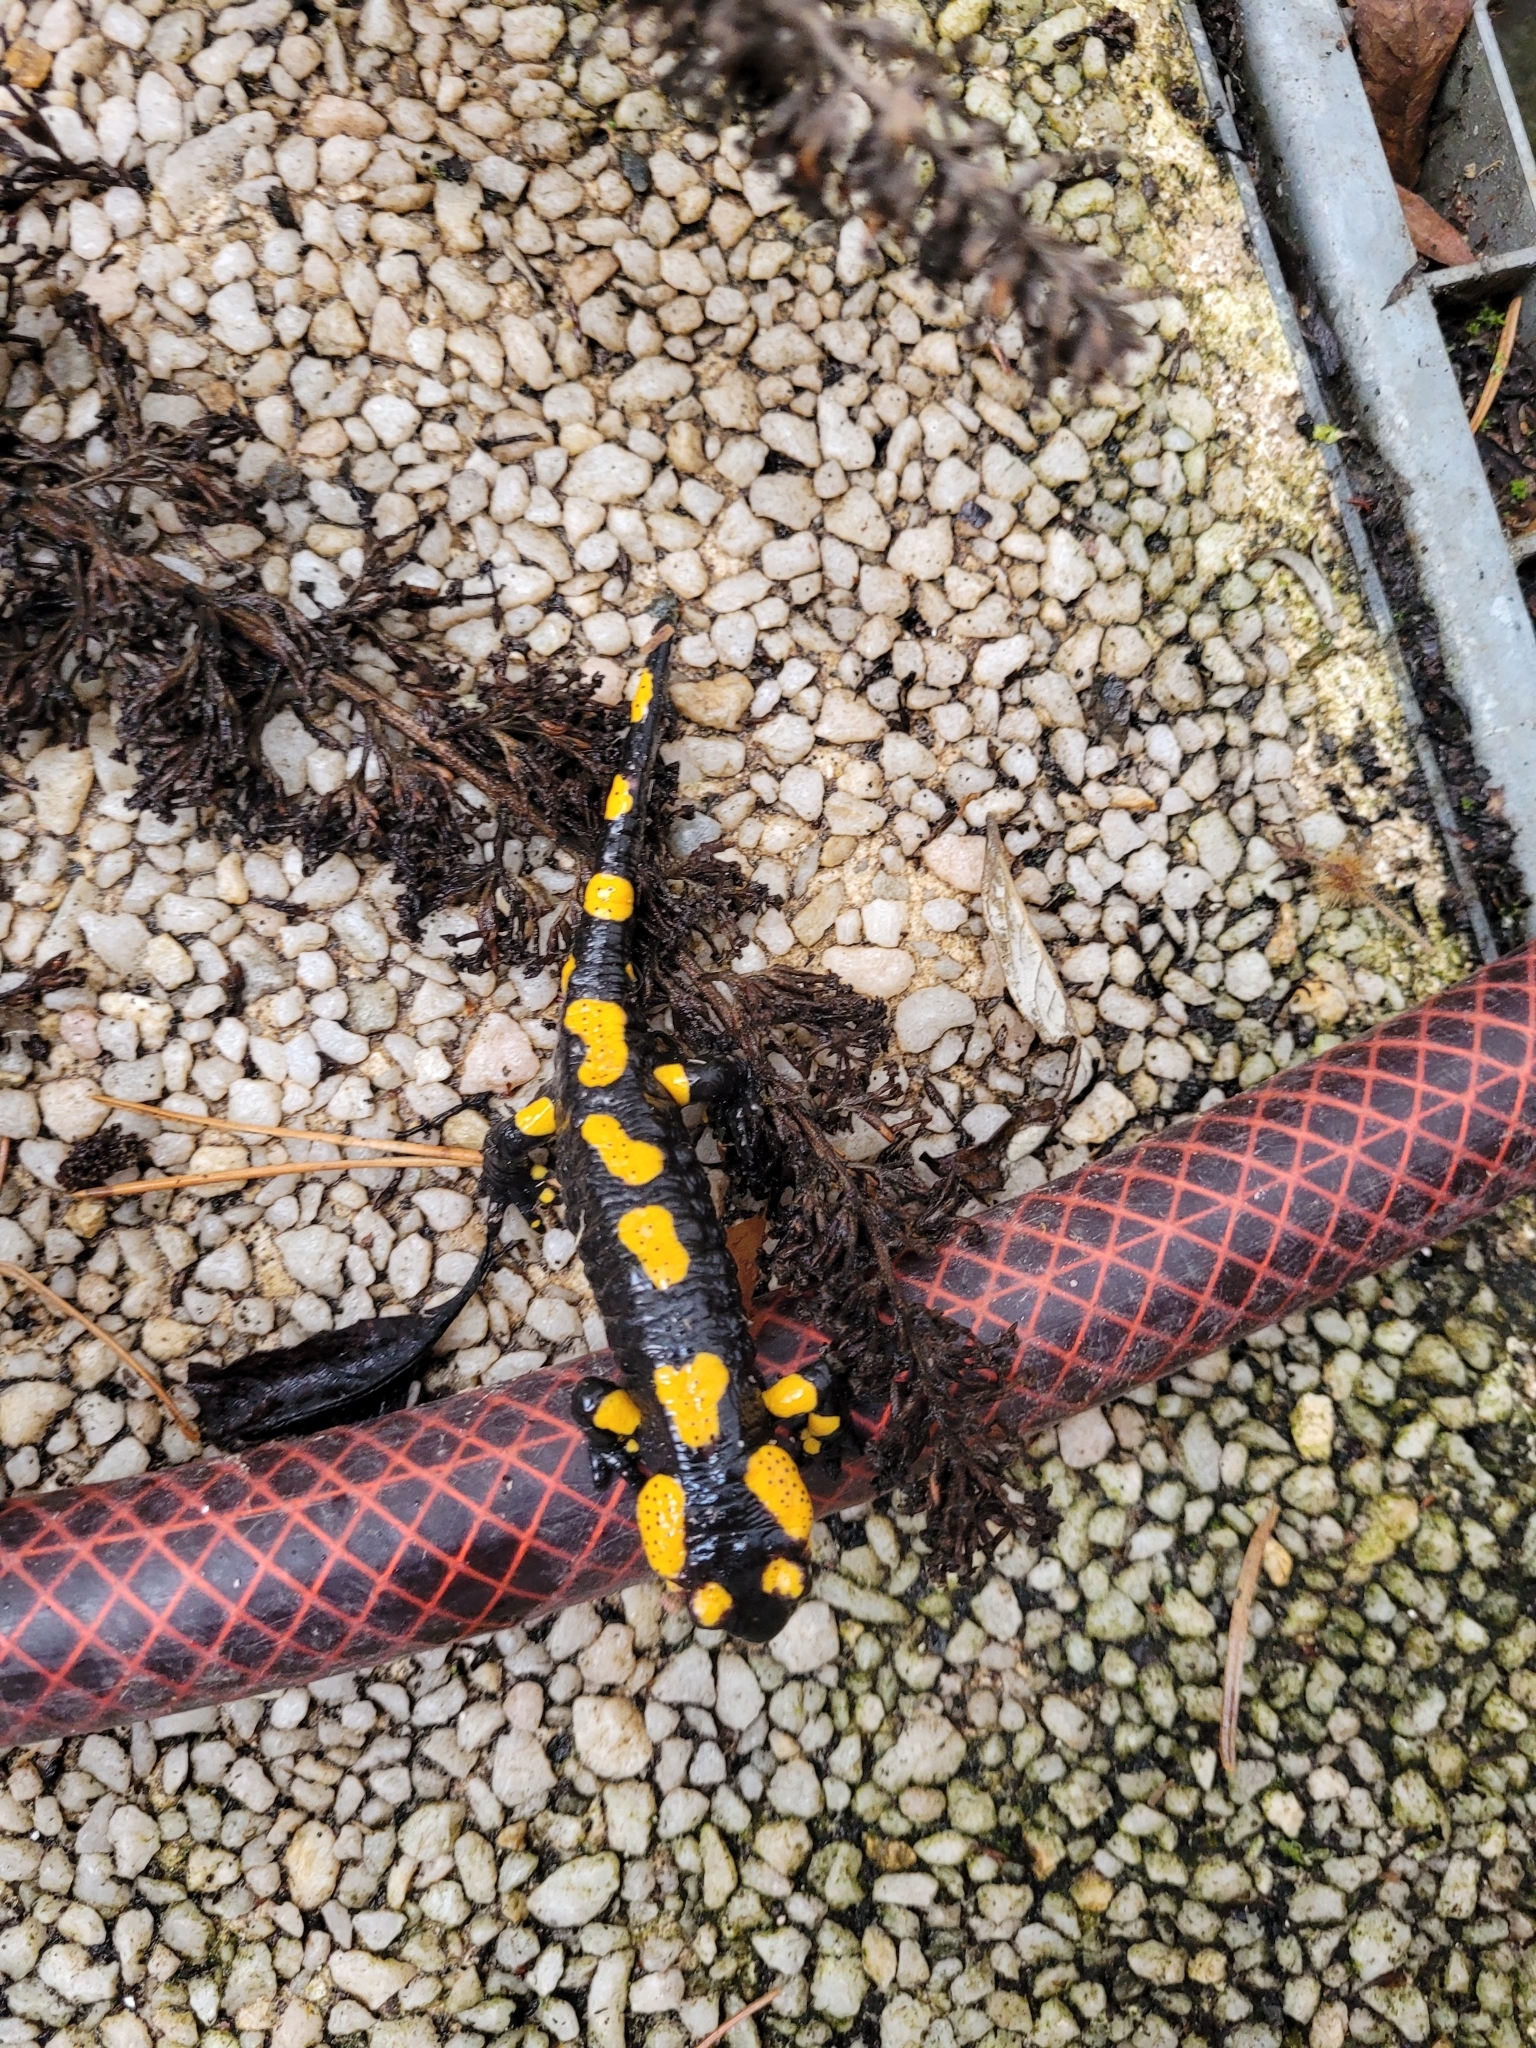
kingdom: Animalia
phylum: Chordata
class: Amphibia
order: Caudata
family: Salamandridae
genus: Salamandra
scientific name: Salamandra salamandra
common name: Fire salamander
